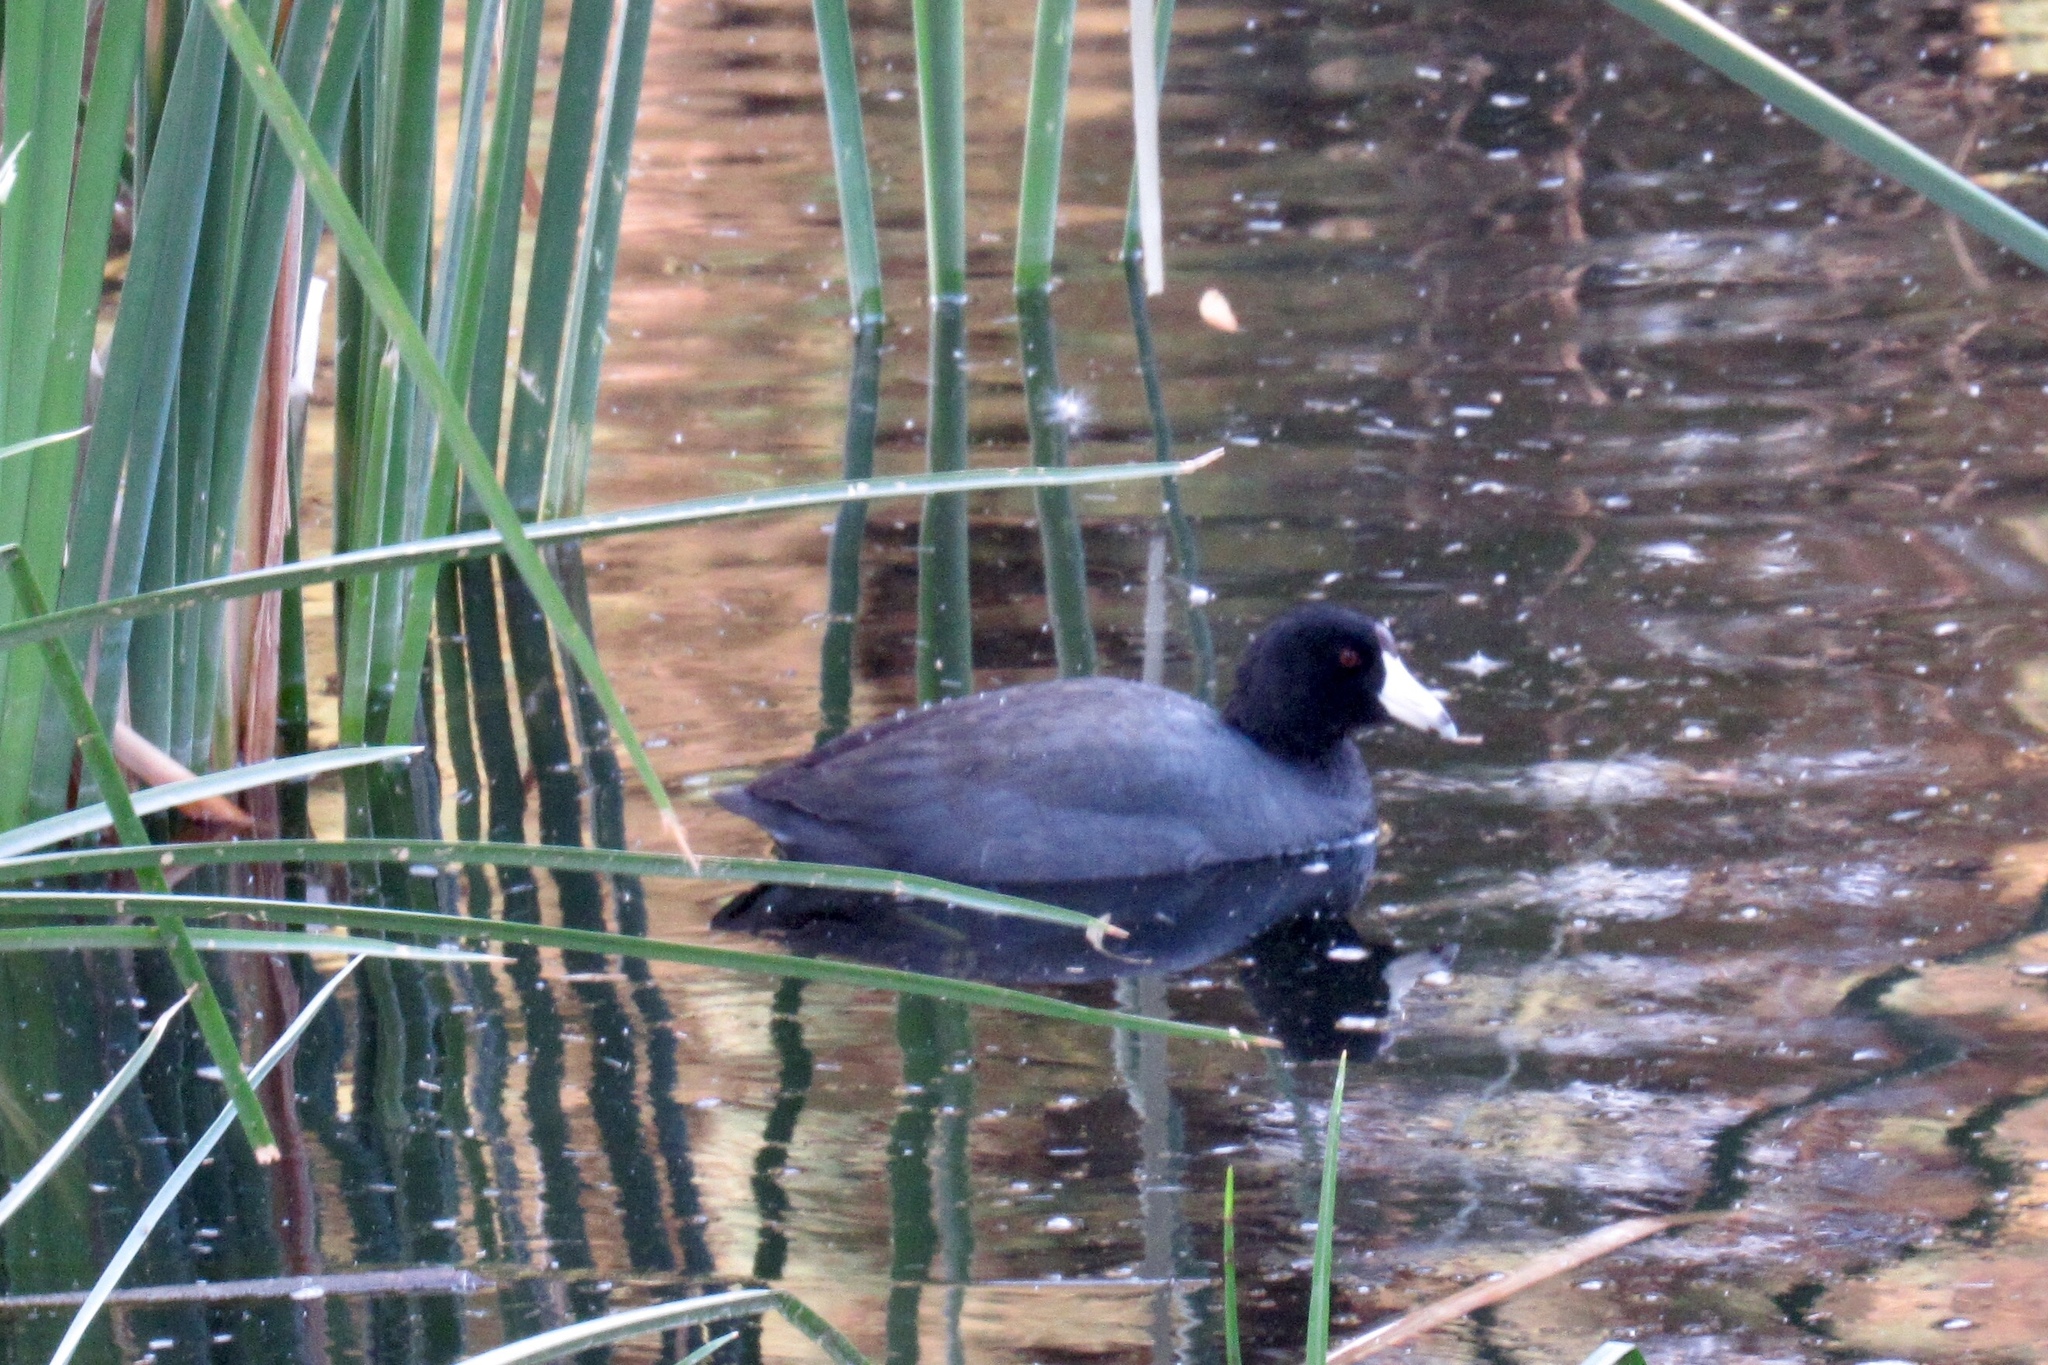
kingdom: Animalia
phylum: Chordata
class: Aves
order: Gruiformes
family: Rallidae
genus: Fulica
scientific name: Fulica americana
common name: American coot
